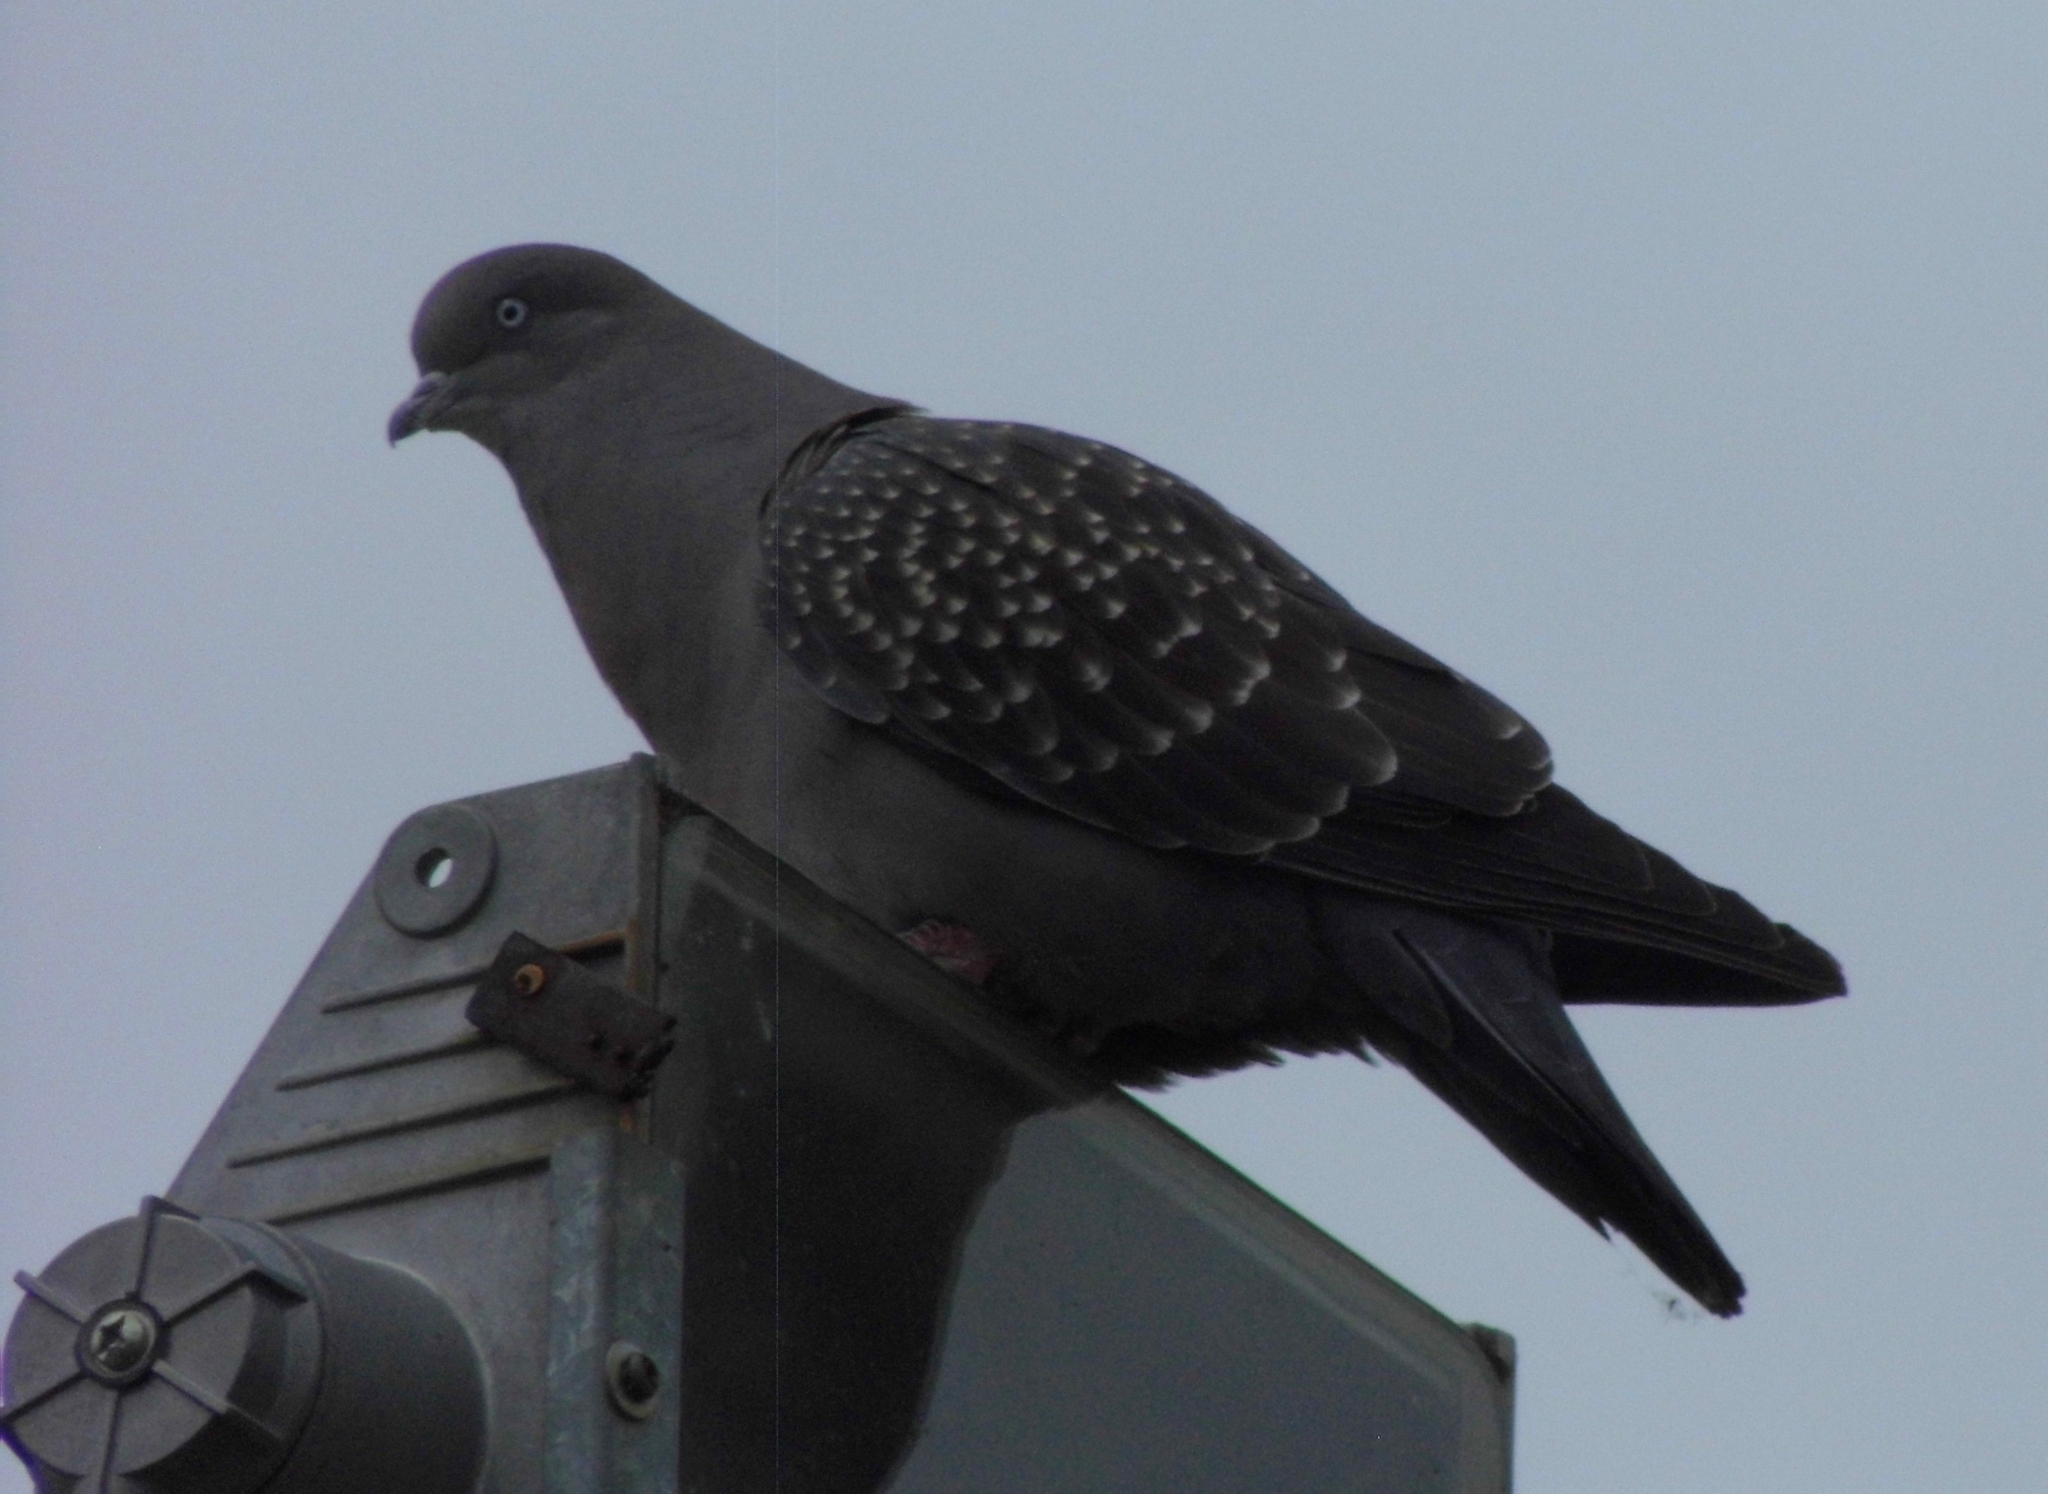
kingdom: Animalia
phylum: Chordata
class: Aves
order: Columbiformes
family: Columbidae
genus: Patagioenas
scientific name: Patagioenas maculosa
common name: Spot-winged pigeon
